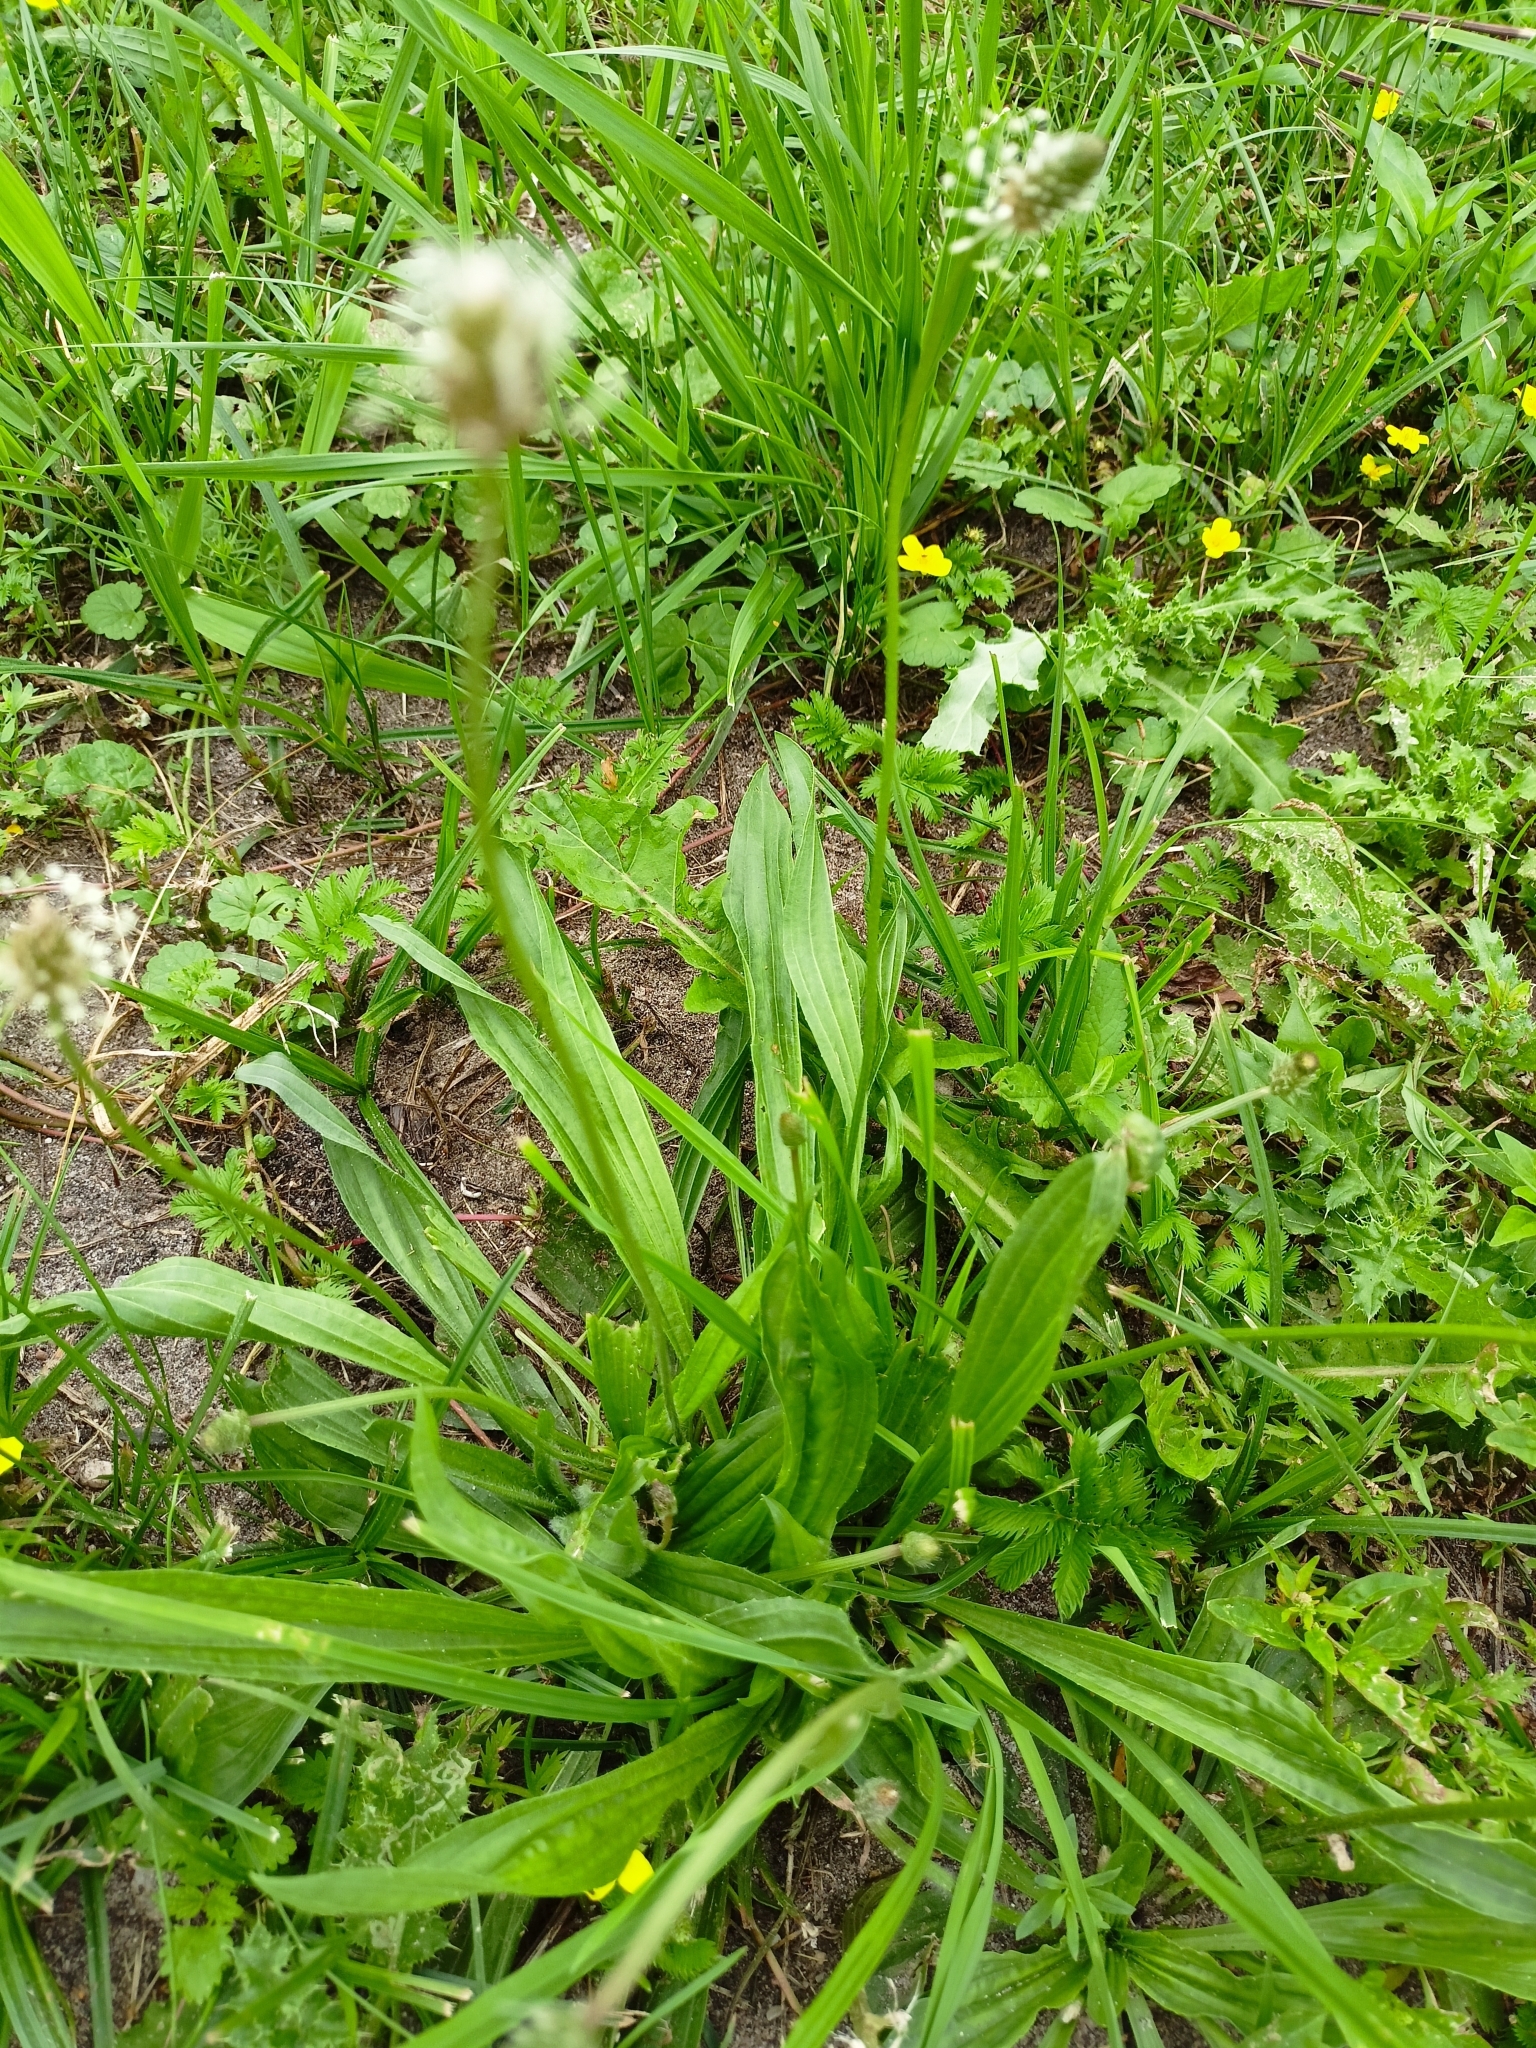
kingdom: Plantae
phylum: Tracheophyta
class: Magnoliopsida
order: Lamiales
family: Plantaginaceae
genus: Plantago
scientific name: Plantago lanceolata
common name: Ribwort plantain
